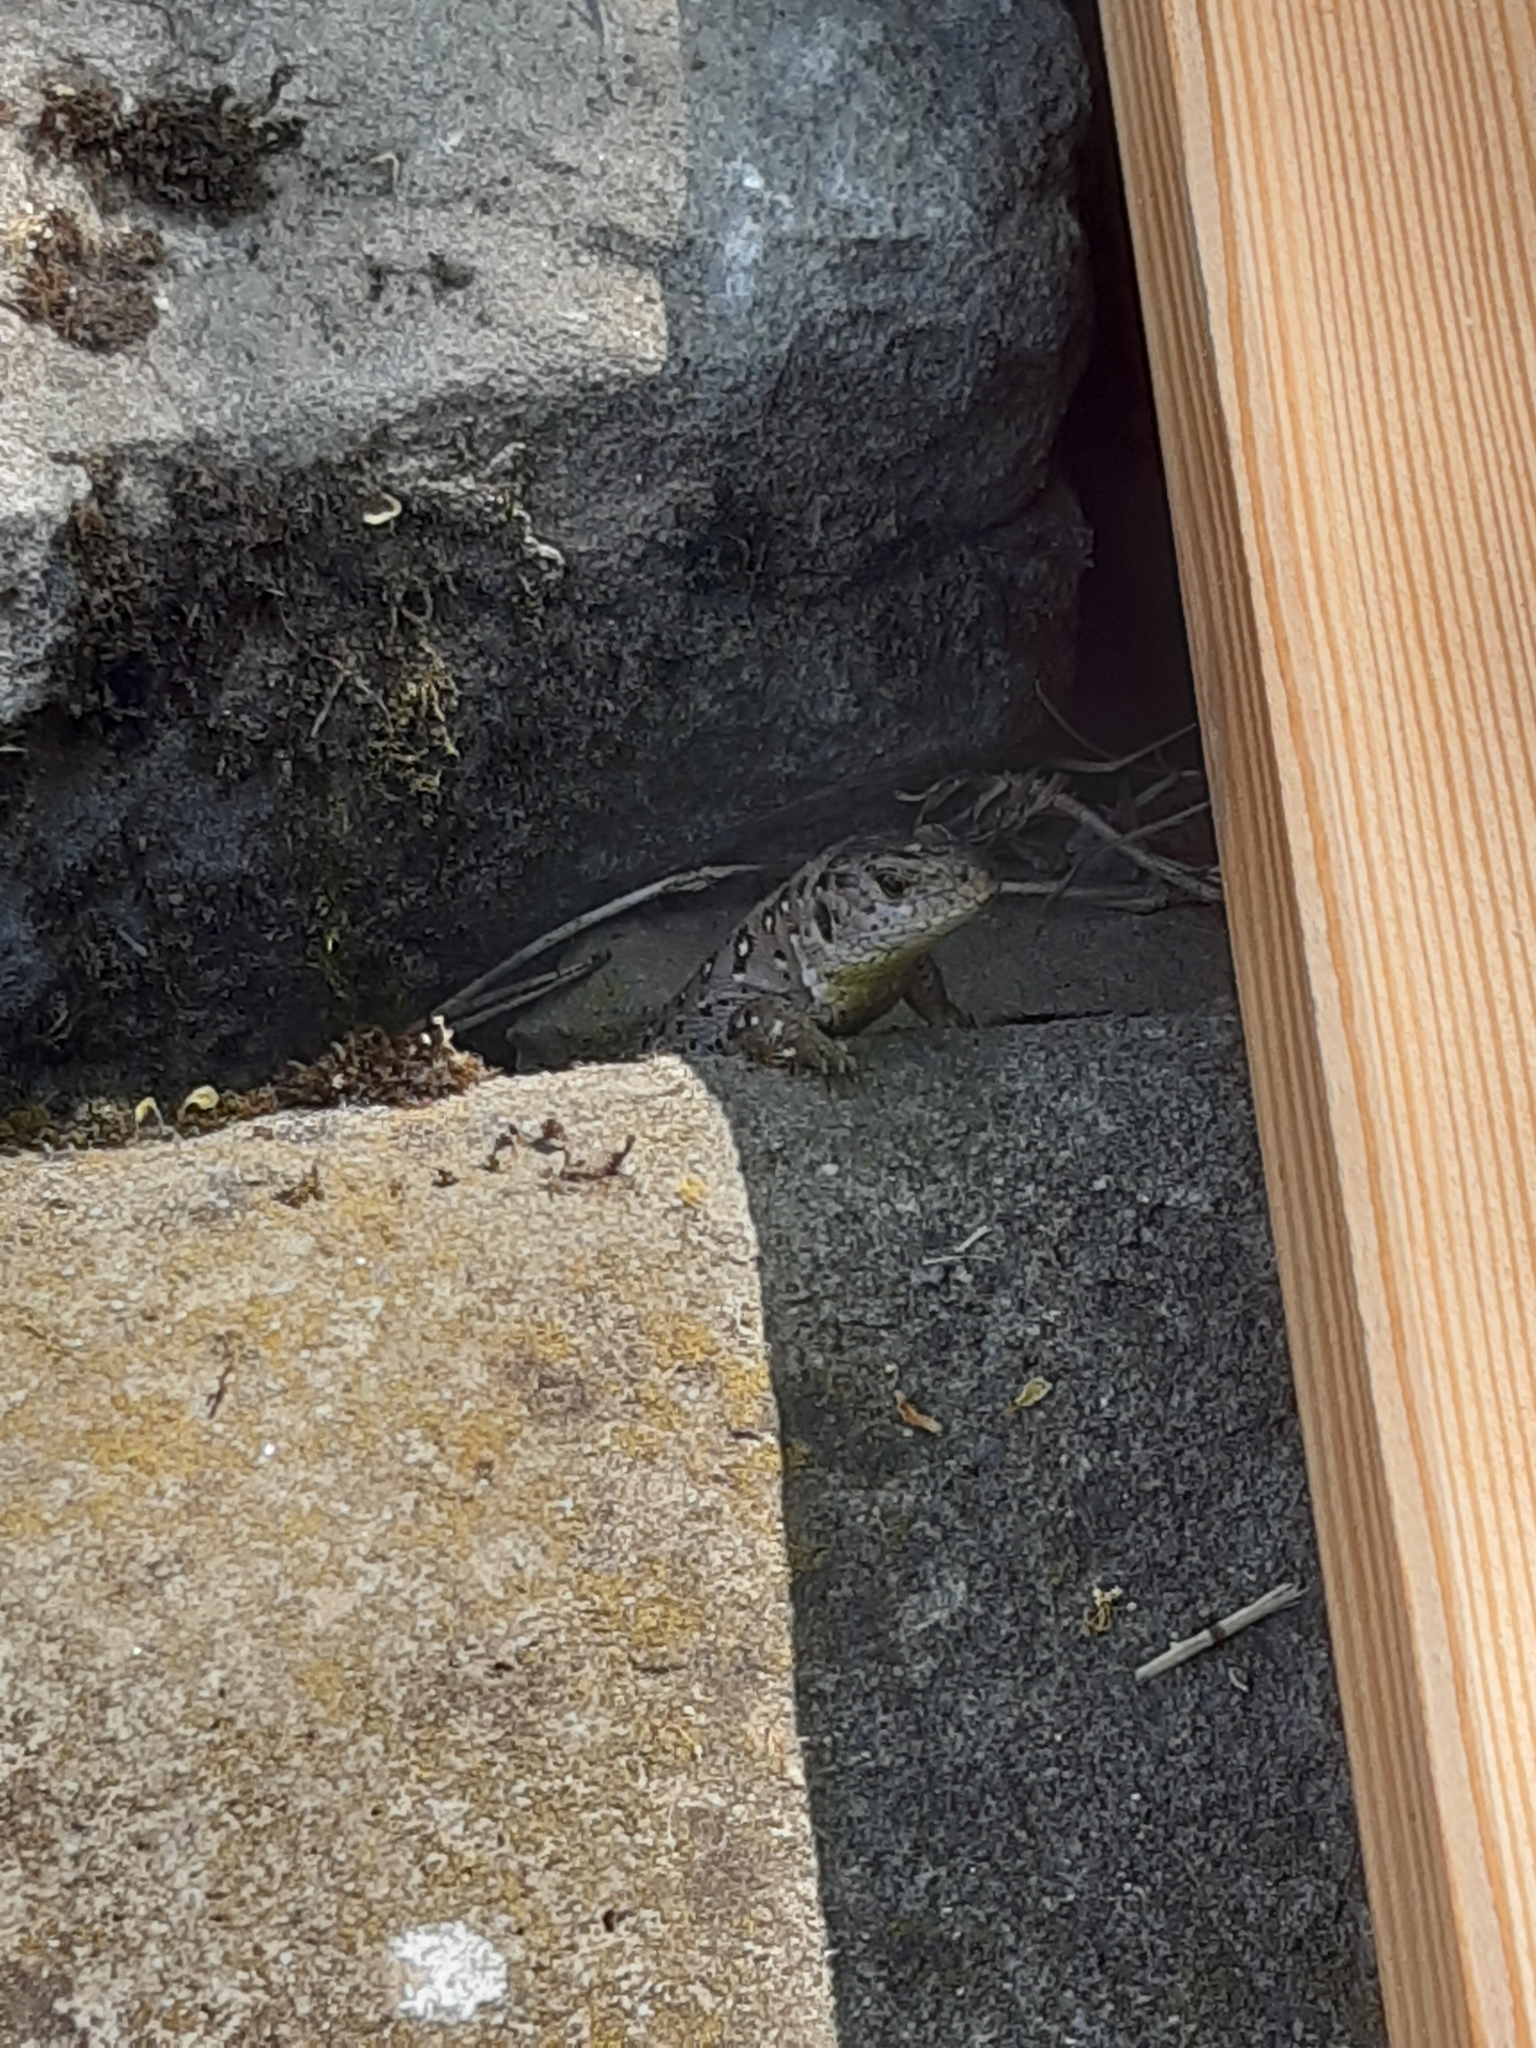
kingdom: Animalia
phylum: Chordata
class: Squamata
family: Lacertidae
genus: Lacerta
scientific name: Lacerta agilis
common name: Sand lizard
